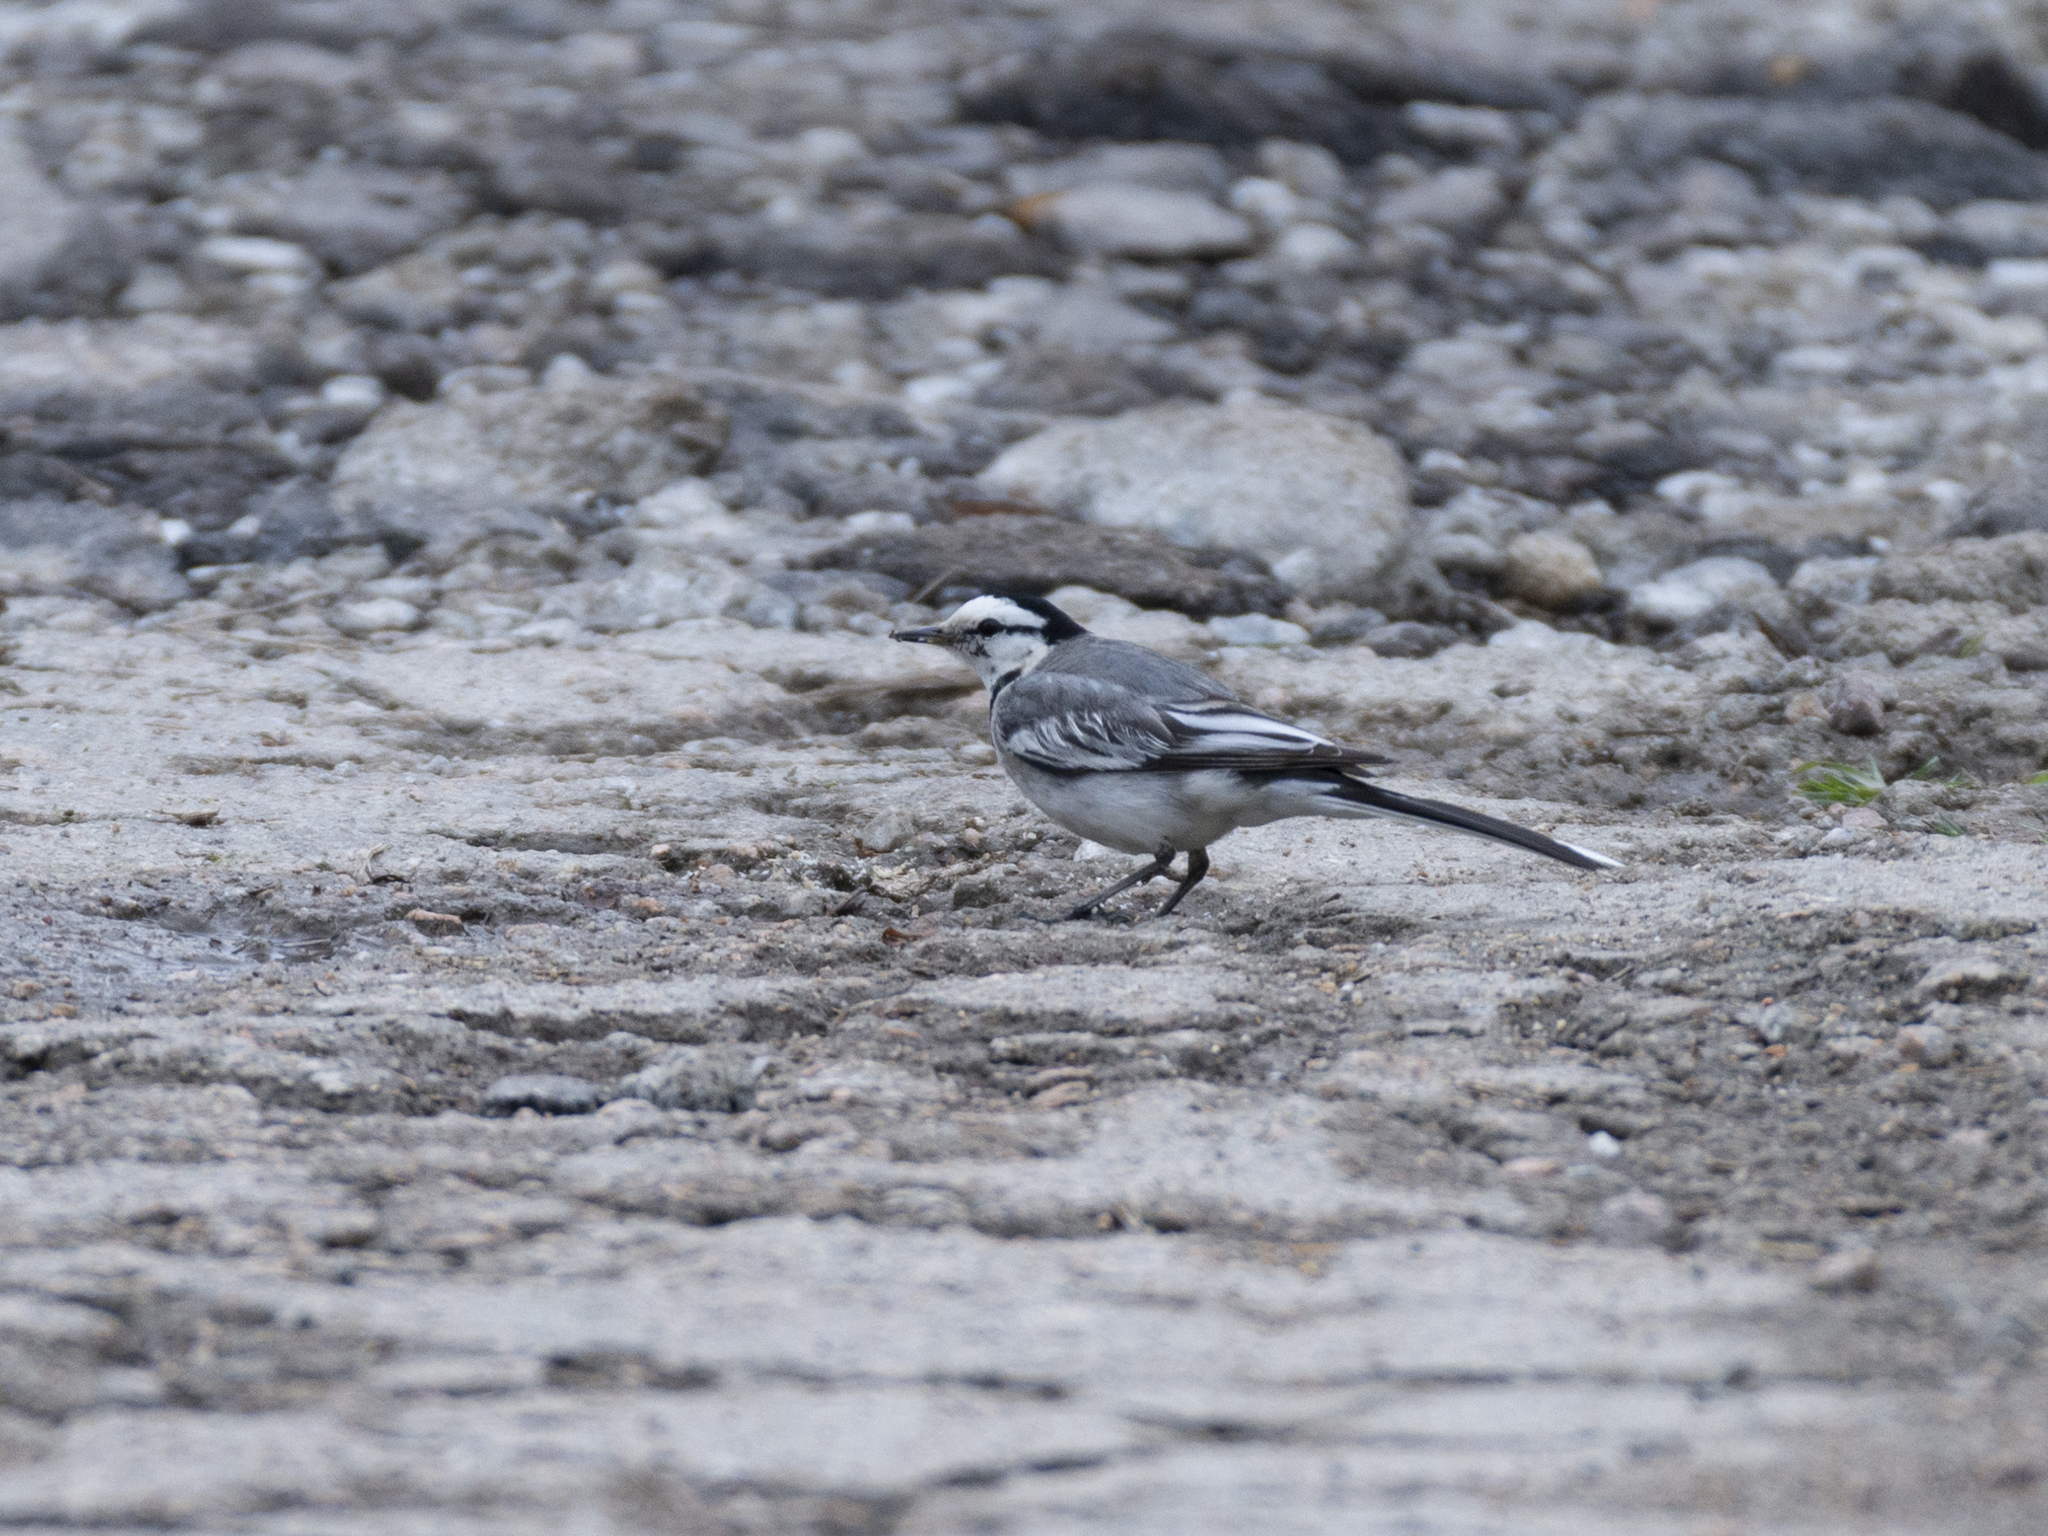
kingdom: Animalia
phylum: Chordata
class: Aves
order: Passeriformes
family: Motacillidae
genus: Motacilla
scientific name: Motacilla alba
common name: White wagtail
